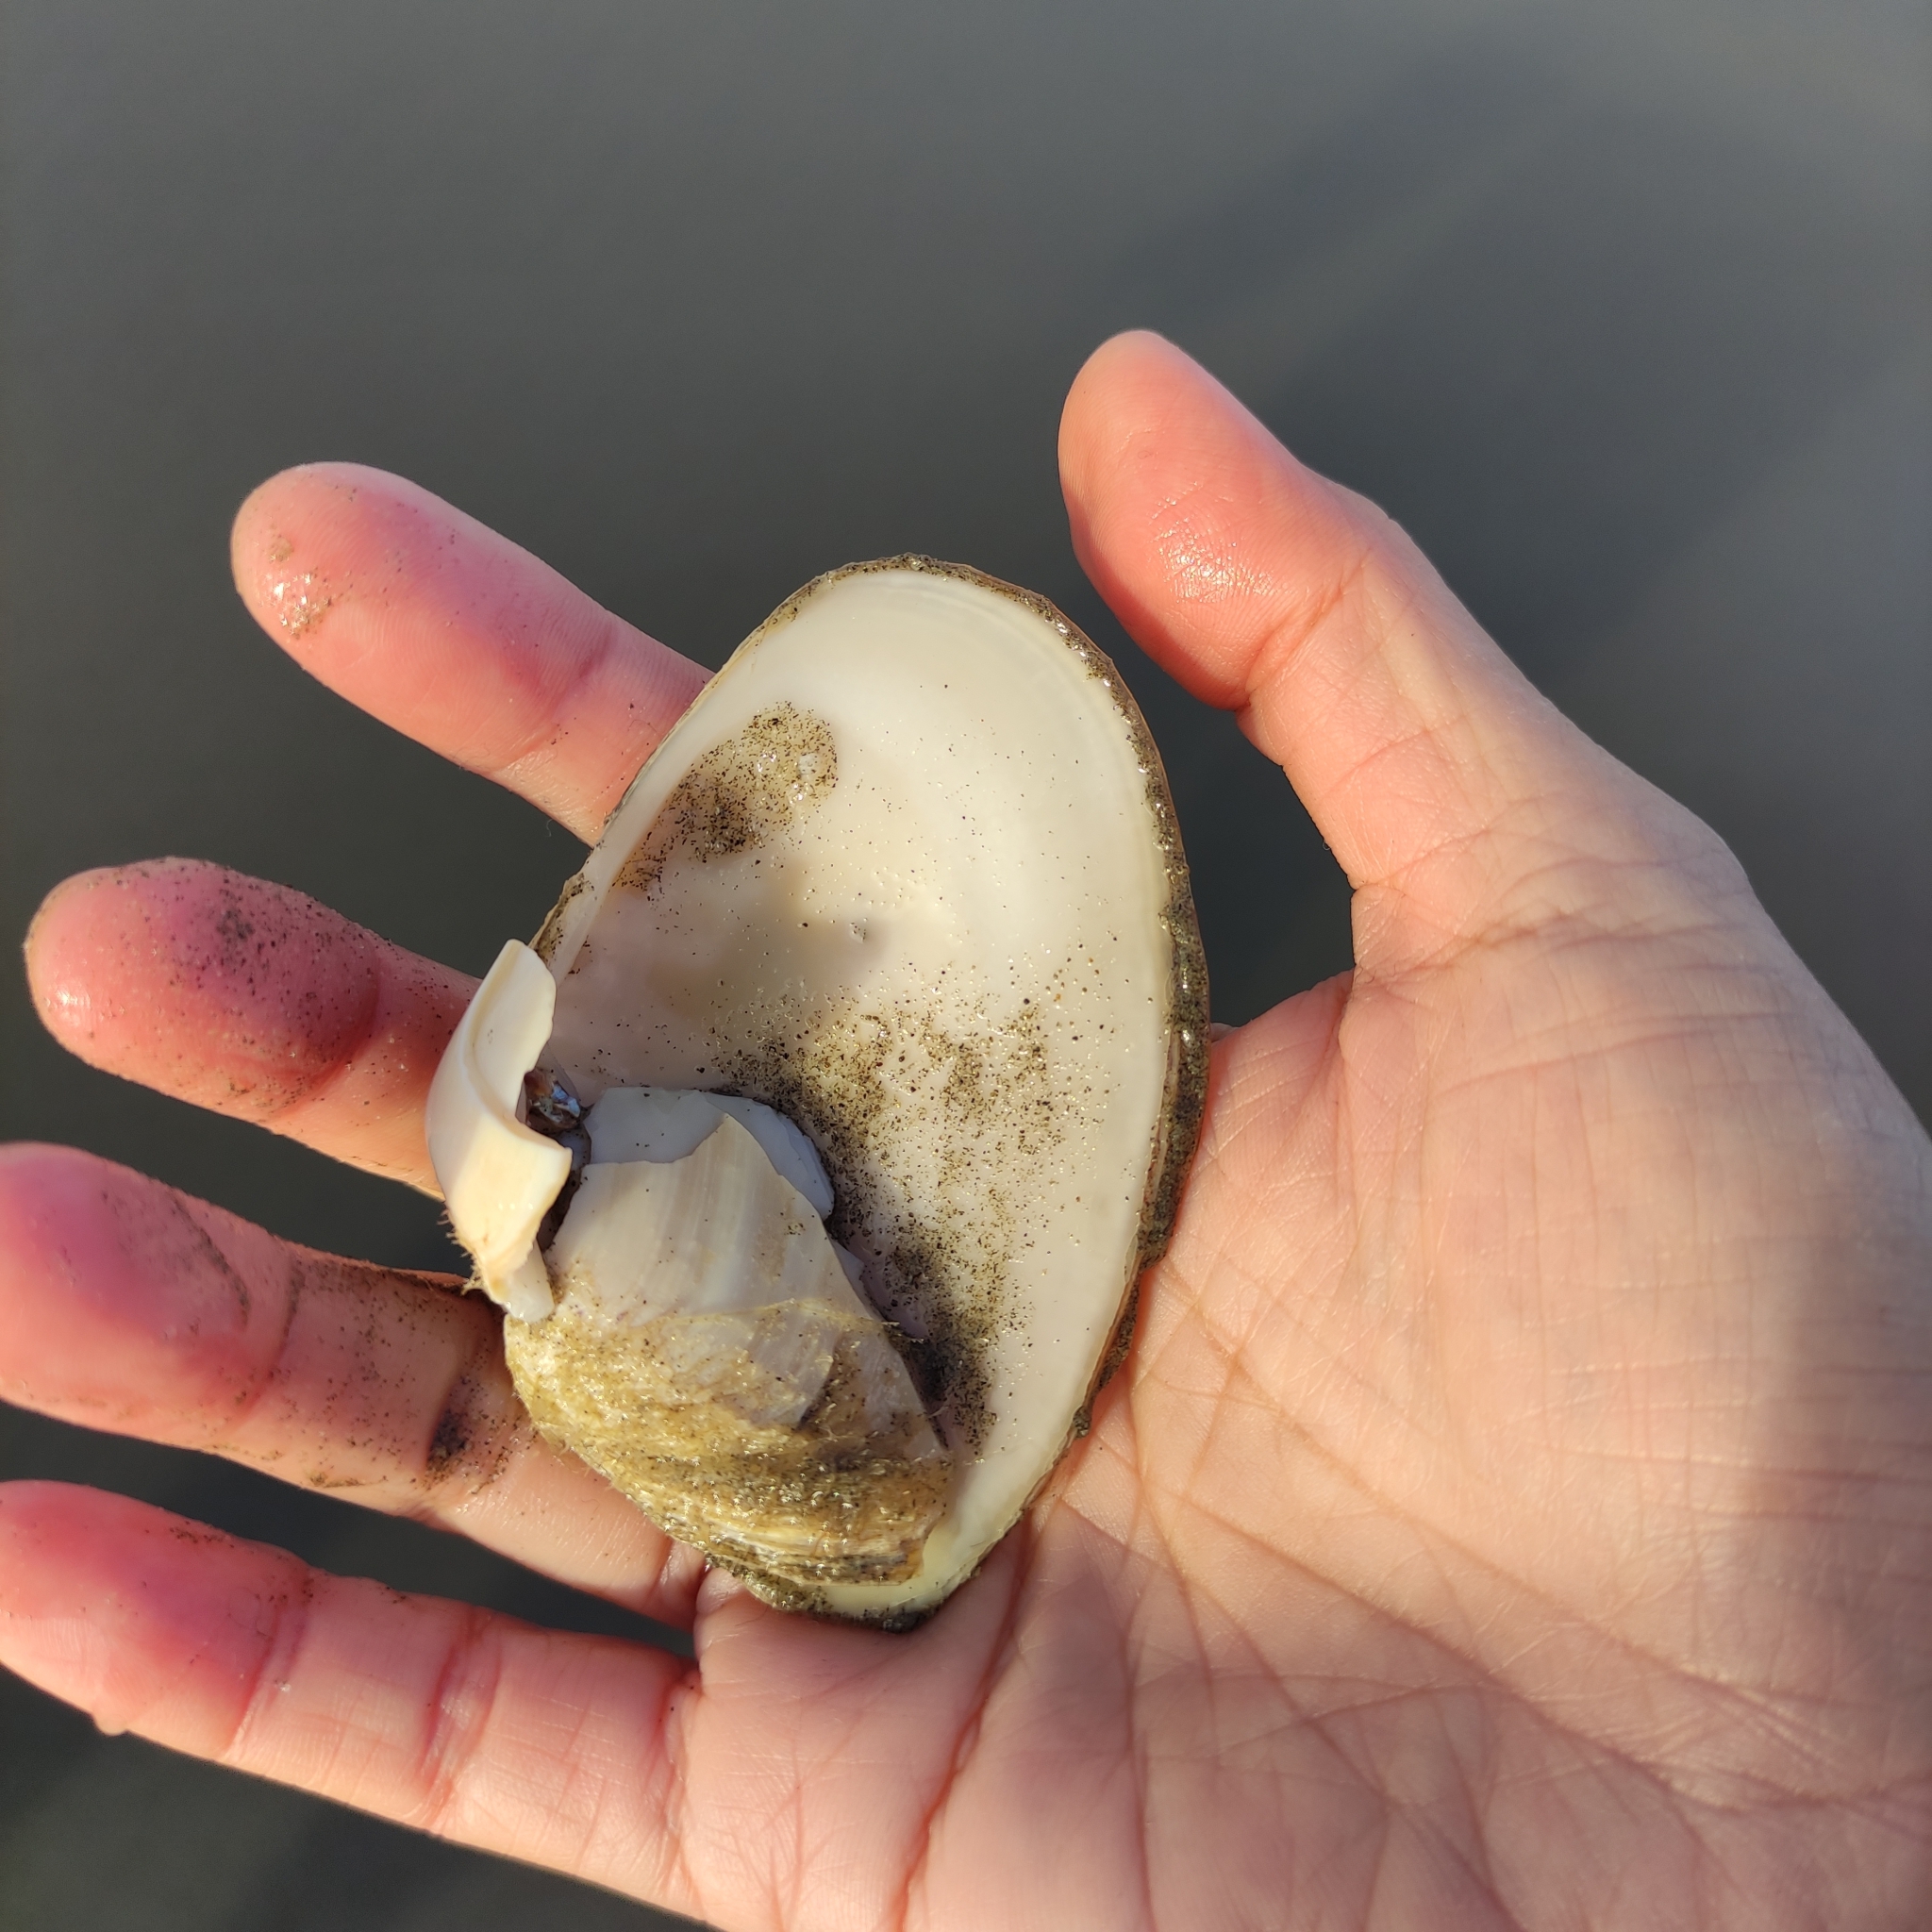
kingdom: Animalia
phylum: Mollusca
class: Bivalvia
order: Venerida
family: Mesodesmatidae
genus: Paphies
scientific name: Paphies donacina
